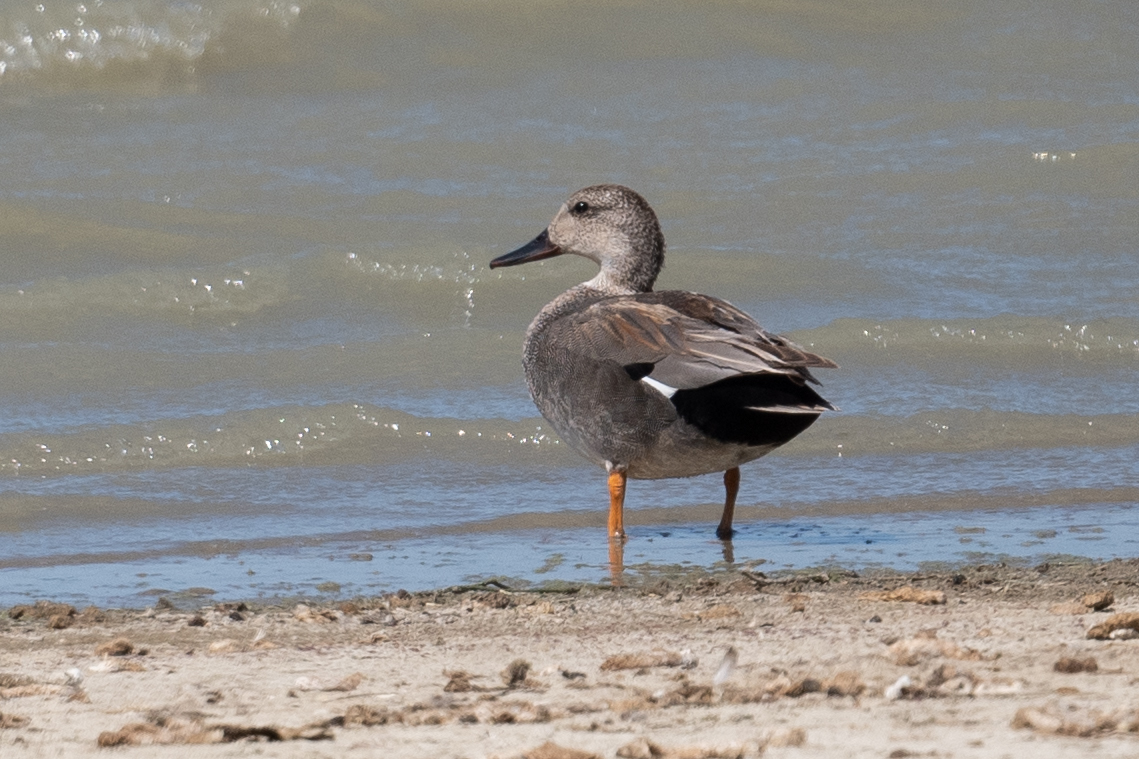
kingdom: Animalia
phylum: Chordata
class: Aves
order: Anseriformes
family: Anatidae
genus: Mareca
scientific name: Mareca strepera
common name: Gadwall
